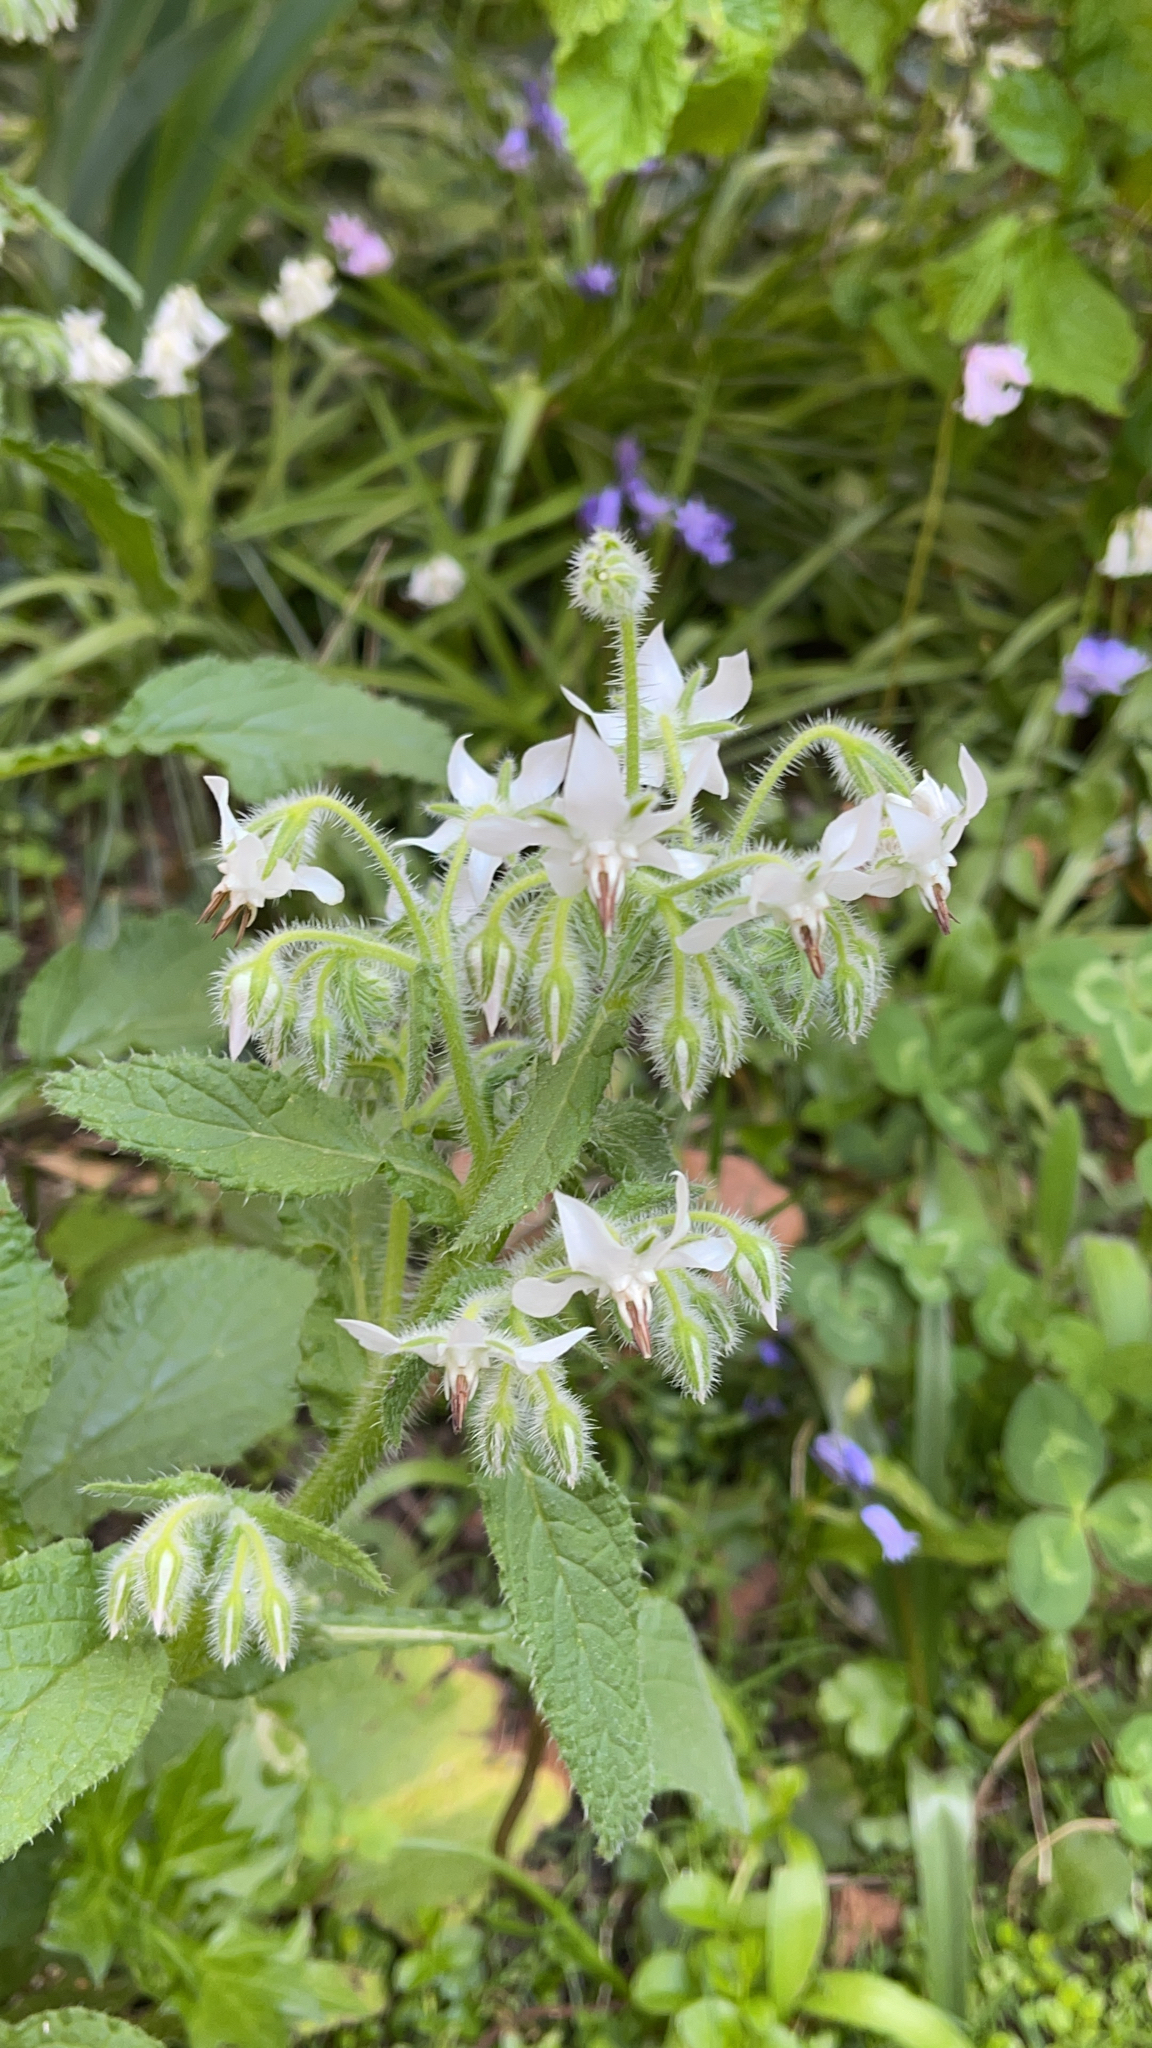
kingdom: Plantae
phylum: Tracheophyta
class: Magnoliopsida
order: Boraginales
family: Boraginaceae
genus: Borago
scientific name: Borago officinalis
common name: Borage
